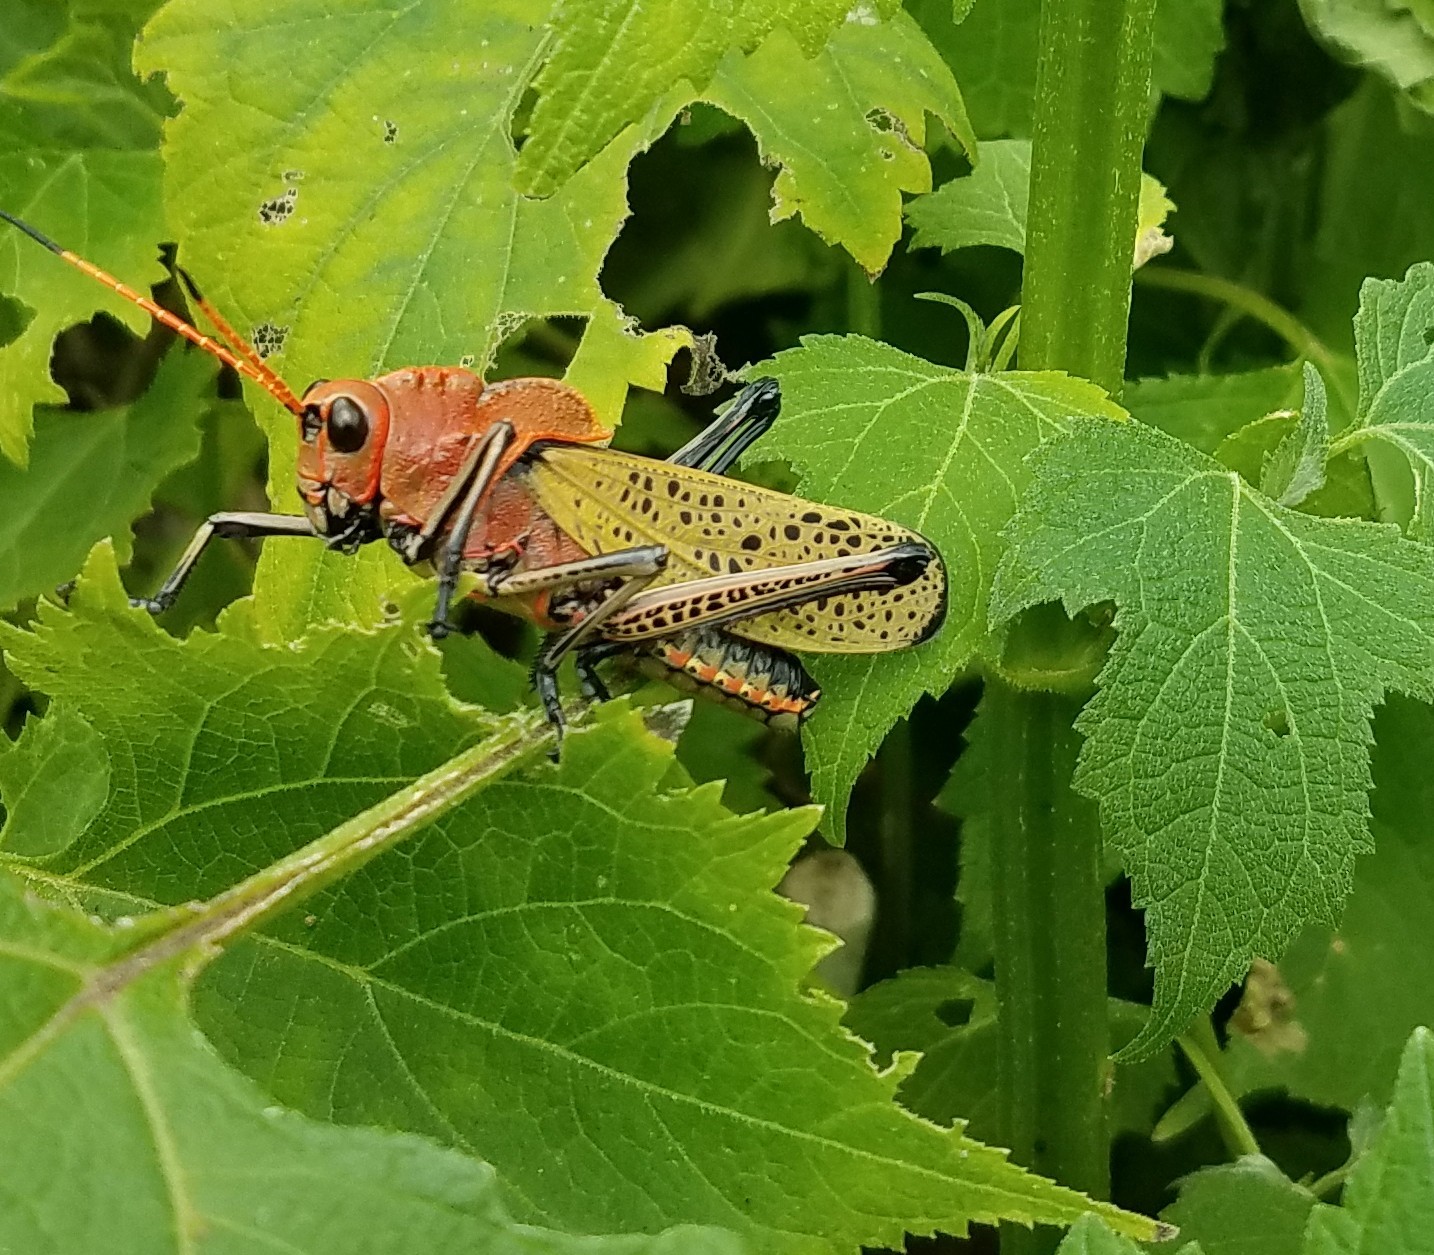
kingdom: Animalia
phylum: Arthropoda
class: Insecta
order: Orthoptera
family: Romaleidae
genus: Romalea
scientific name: Romalea
